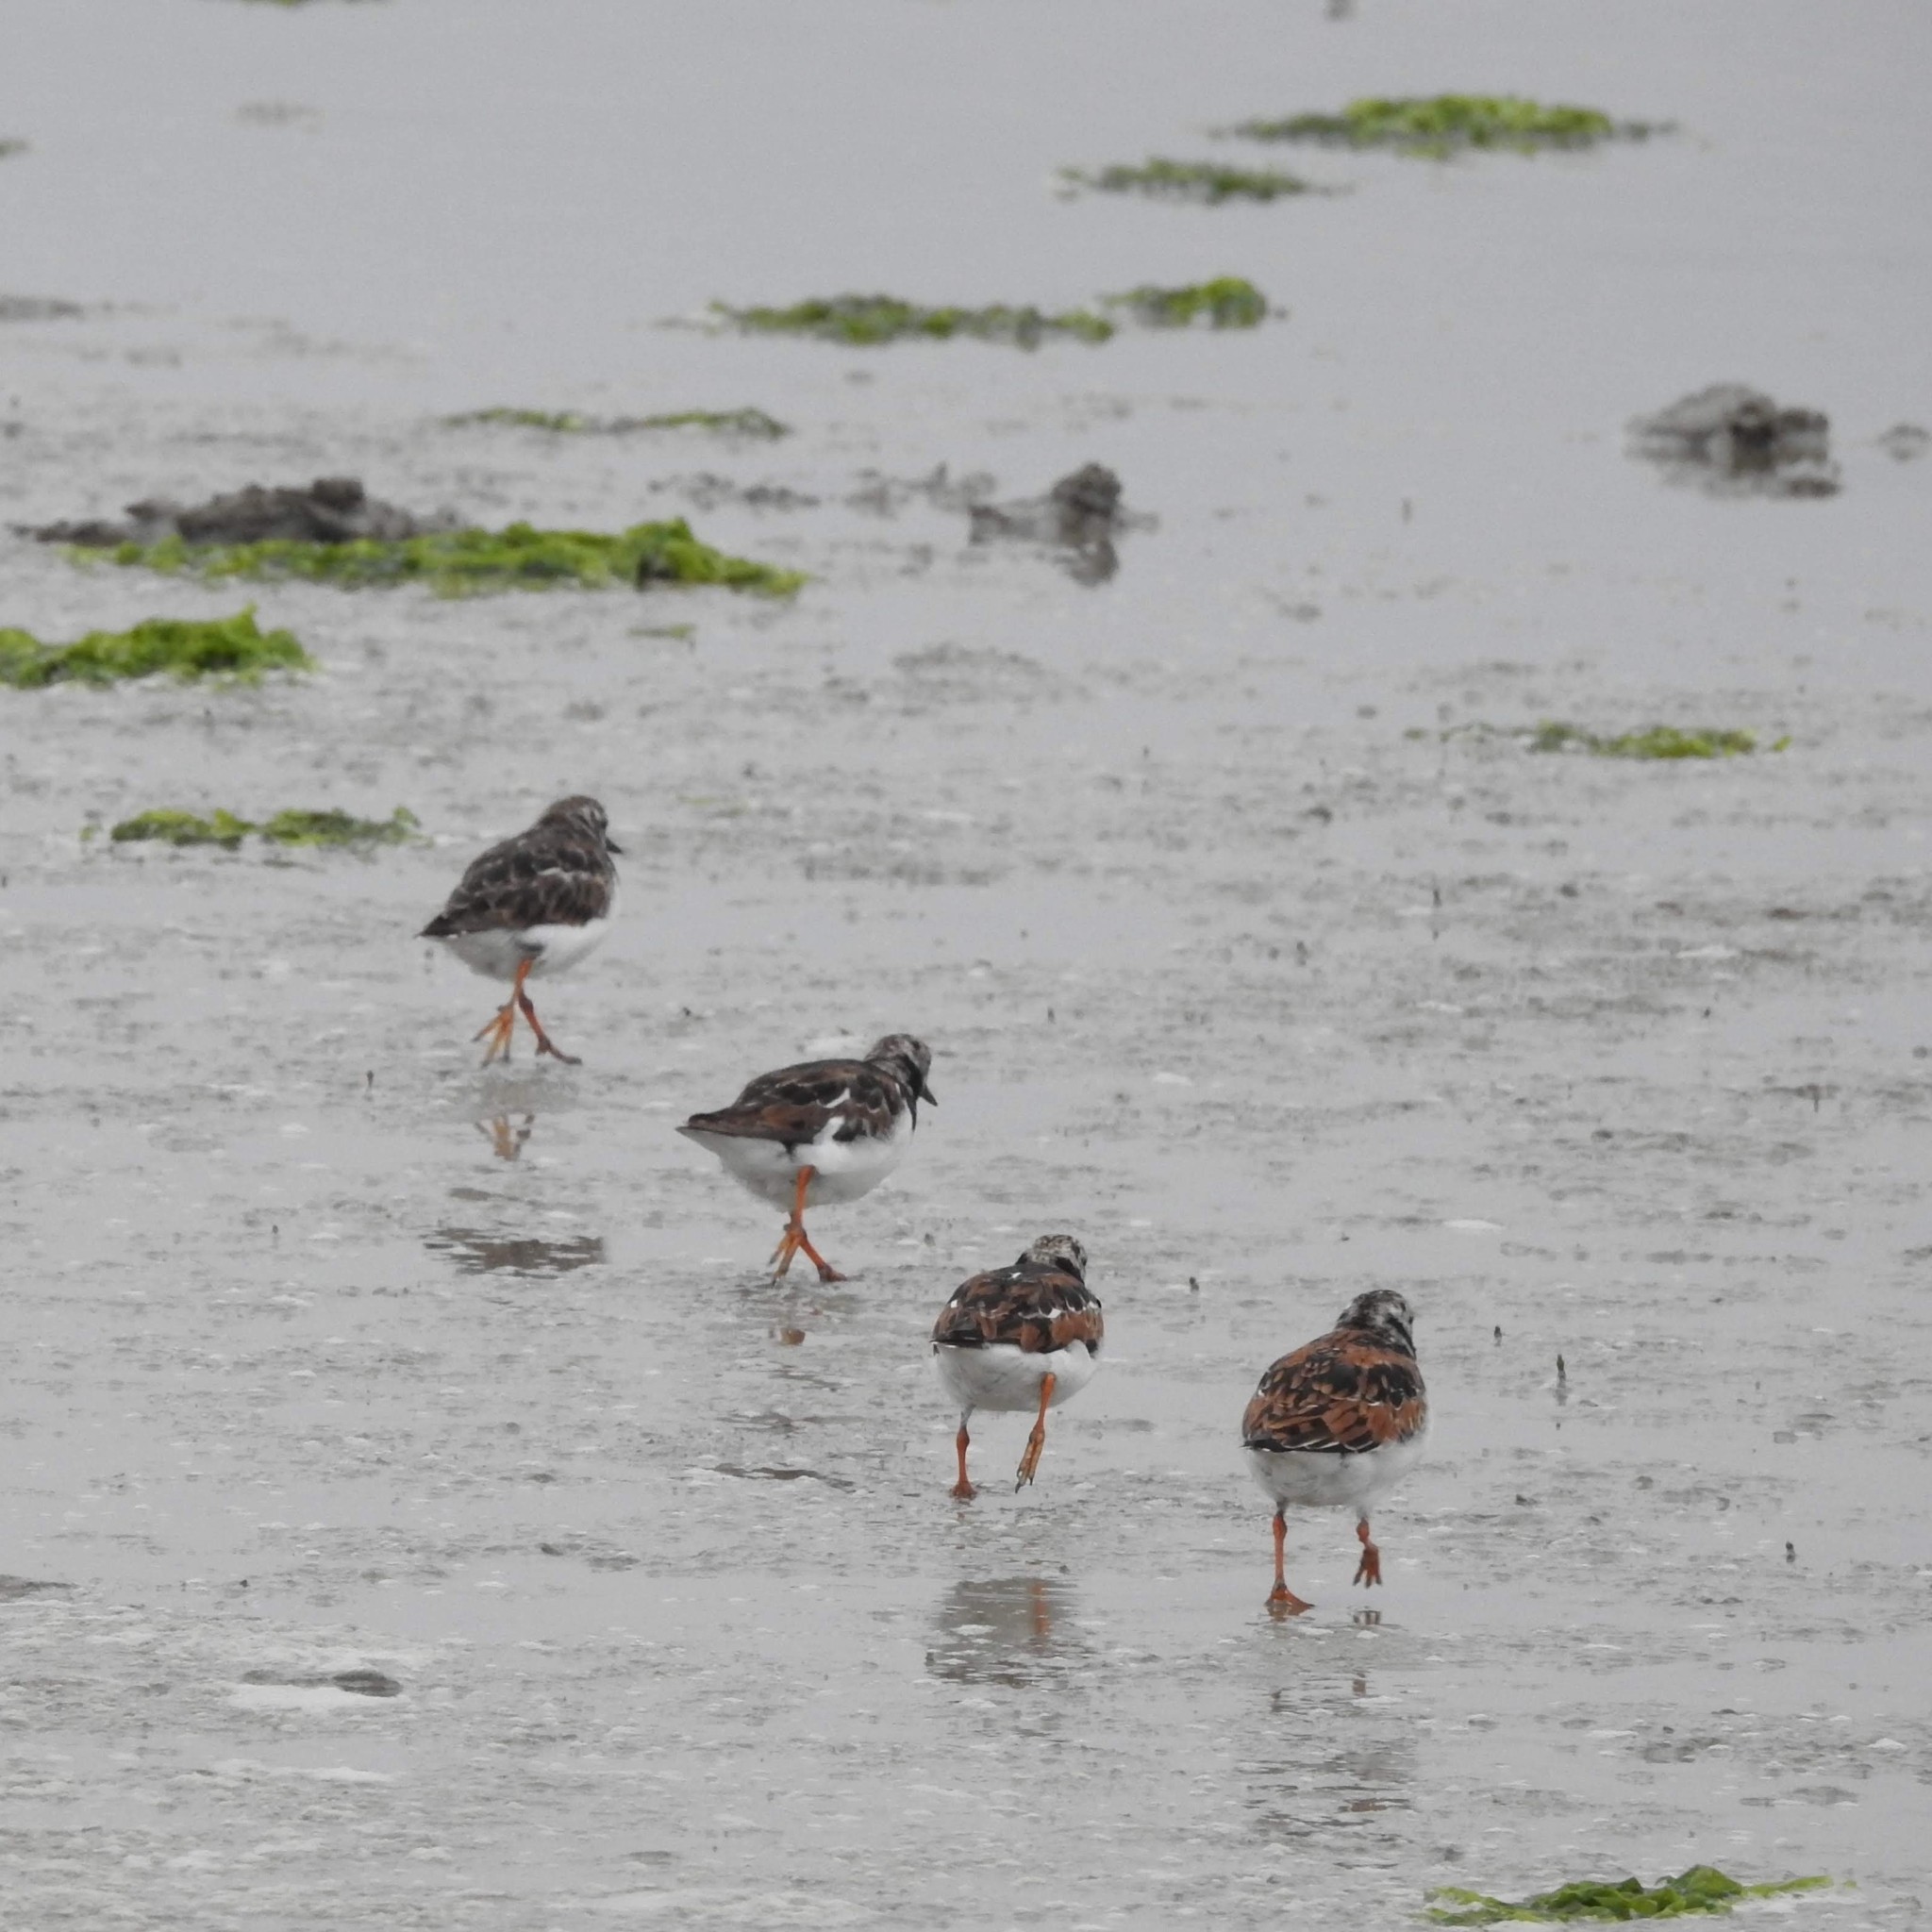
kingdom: Animalia
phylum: Chordata
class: Aves
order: Charadriiformes
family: Scolopacidae
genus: Arenaria
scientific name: Arenaria interpres
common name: Ruddy turnstone
